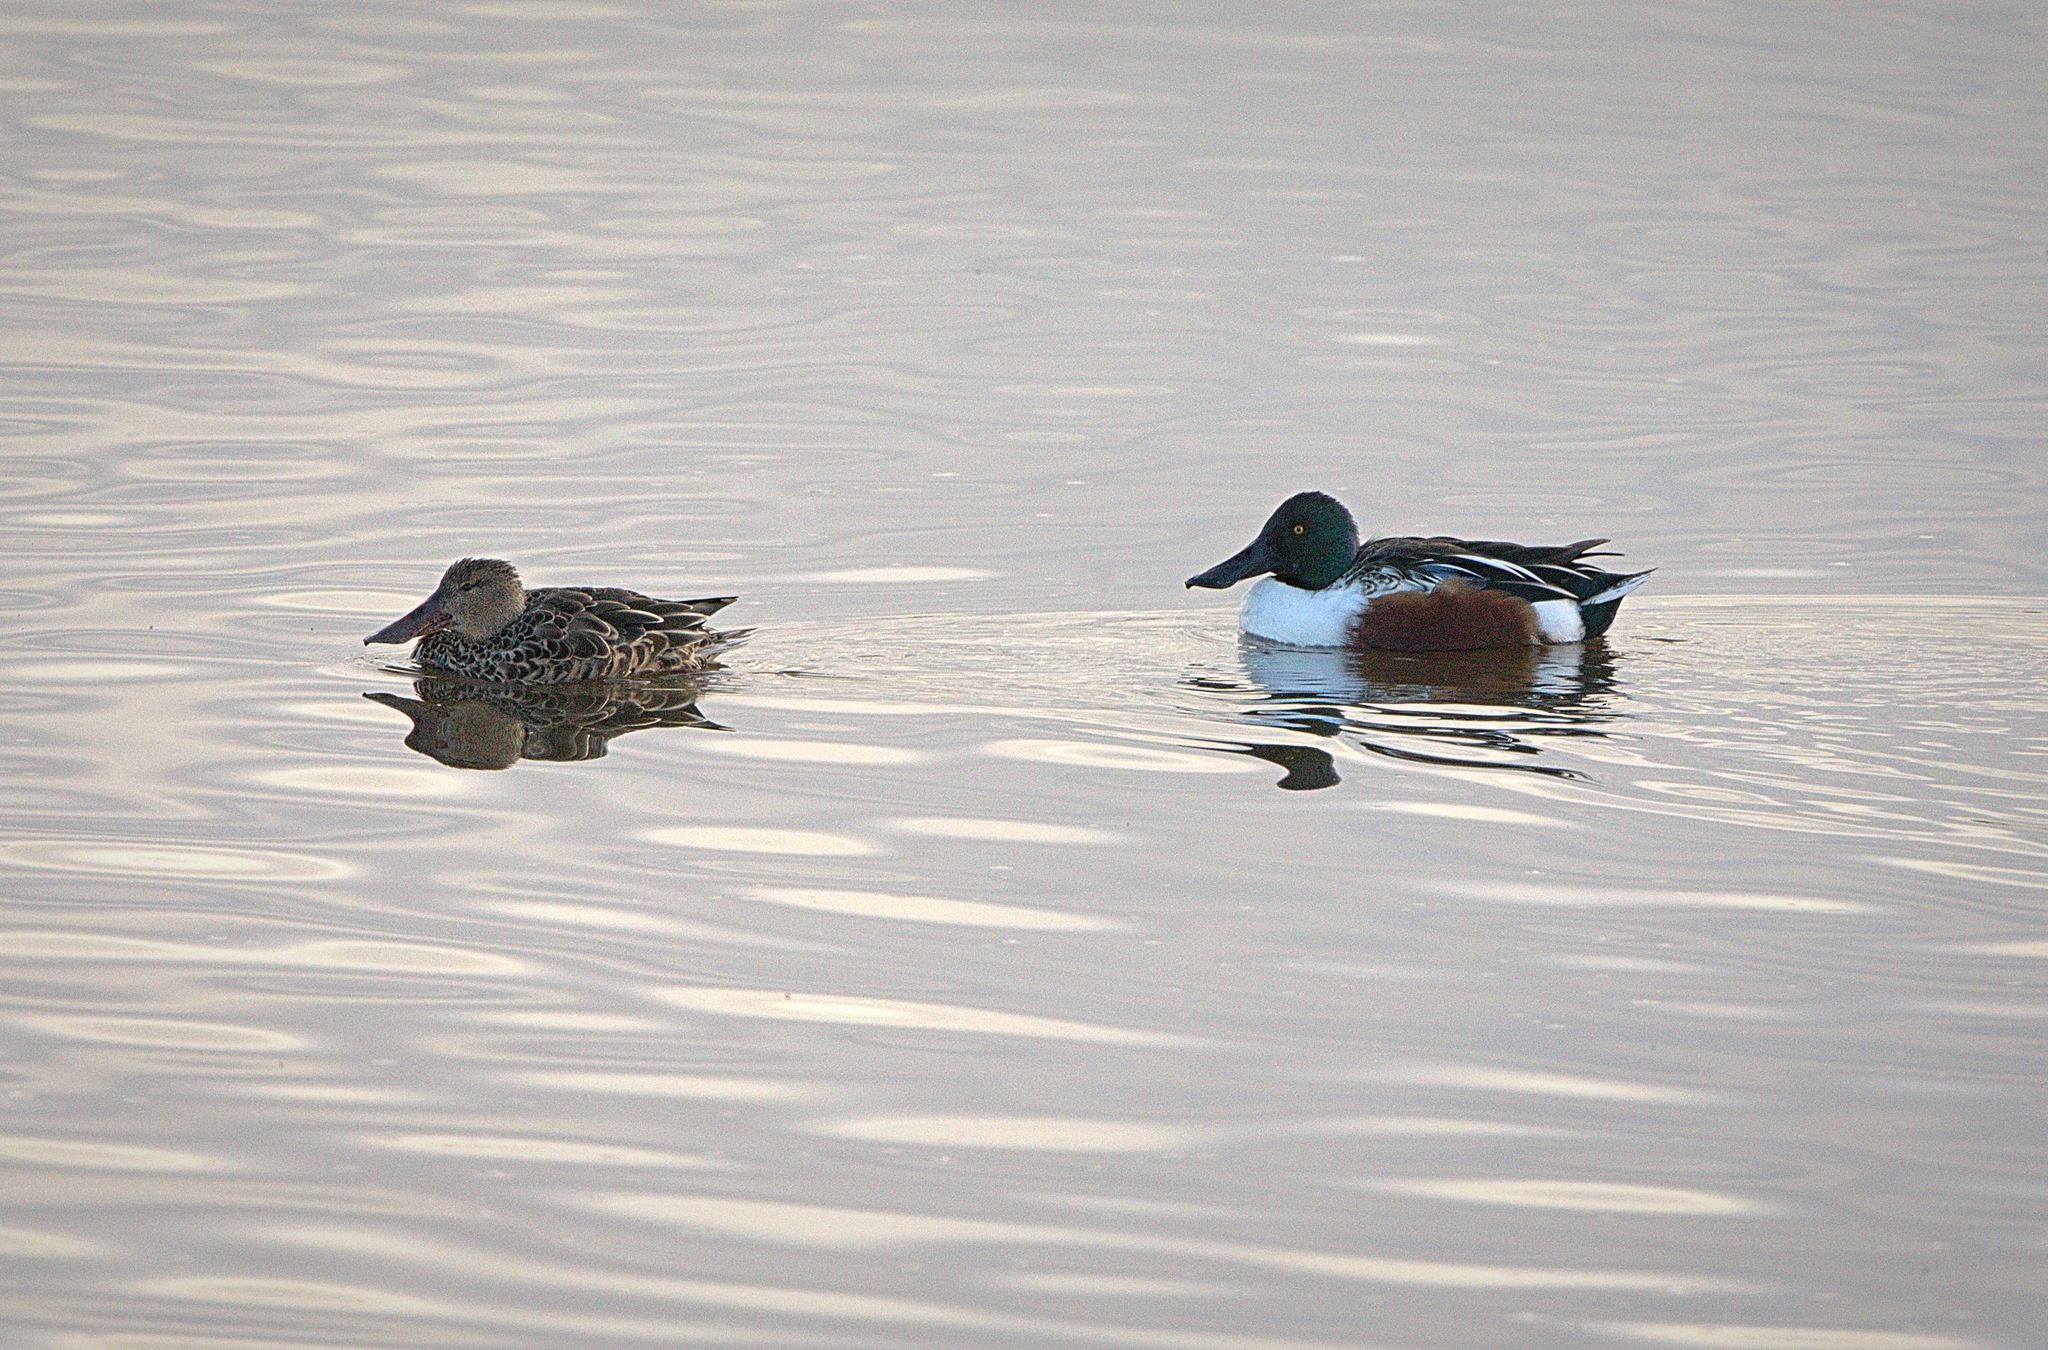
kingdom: Animalia
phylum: Chordata
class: Aves
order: Anseriformes
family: Anatidae
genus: Spatula
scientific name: Spatula clypeata
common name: Northern shoveler
